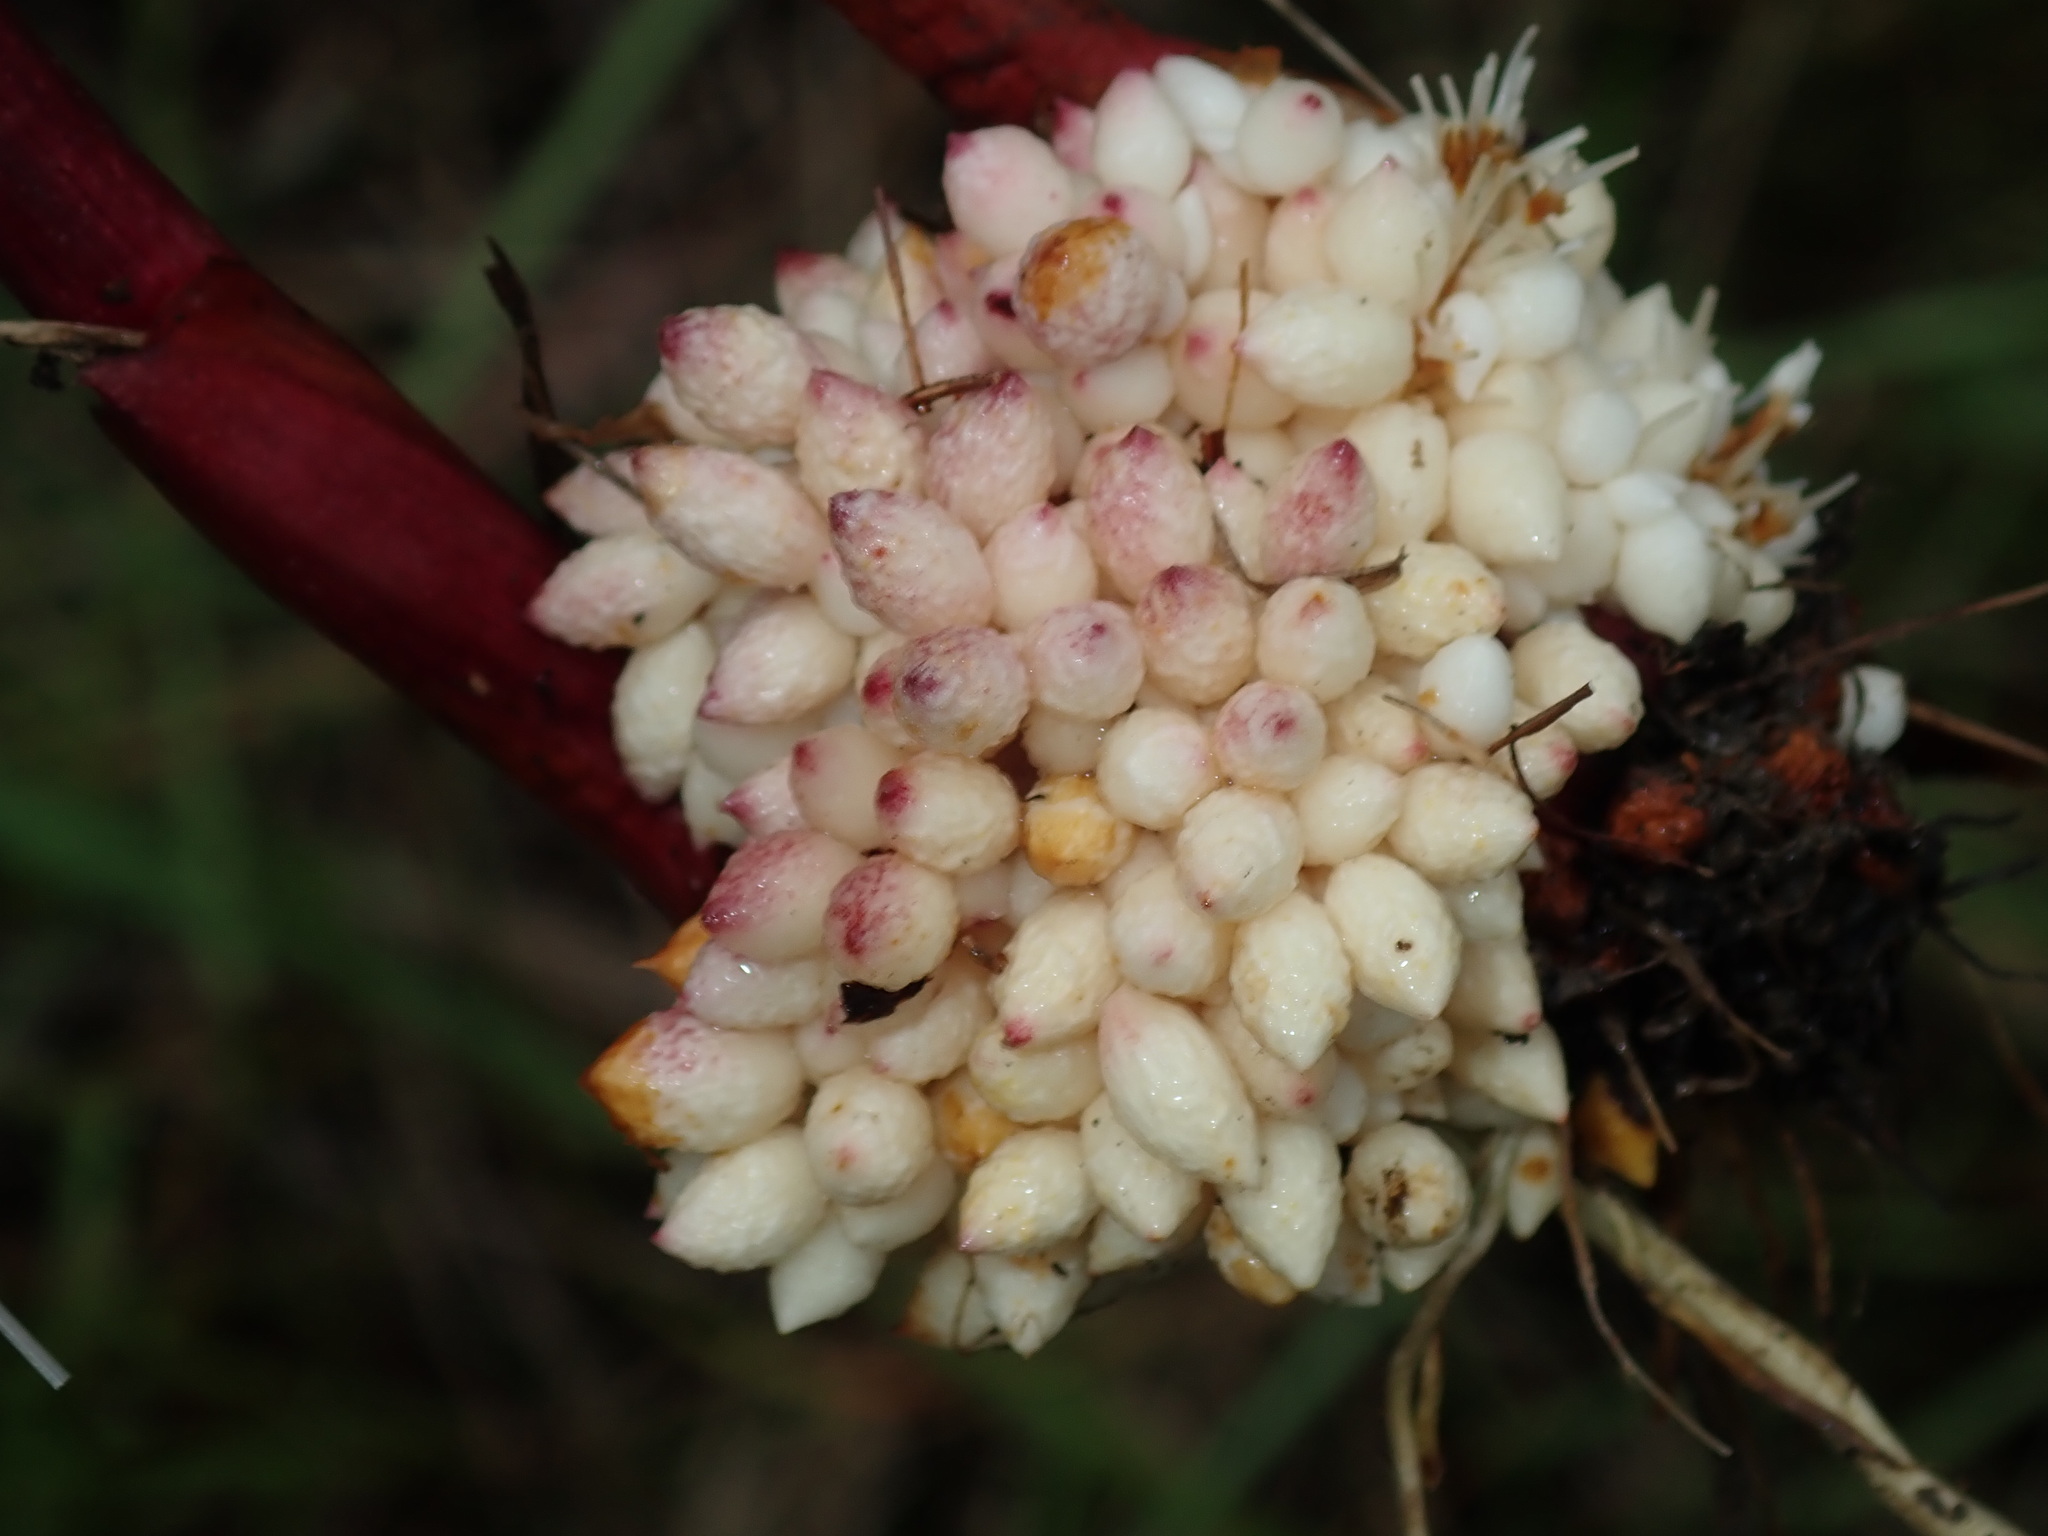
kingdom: Plantae
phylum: Tracheophyta
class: Liliopsida
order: Asparagales
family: Iridaceae
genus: Gladiolus
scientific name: Gladiolus undulatus
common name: Large painted-lady
